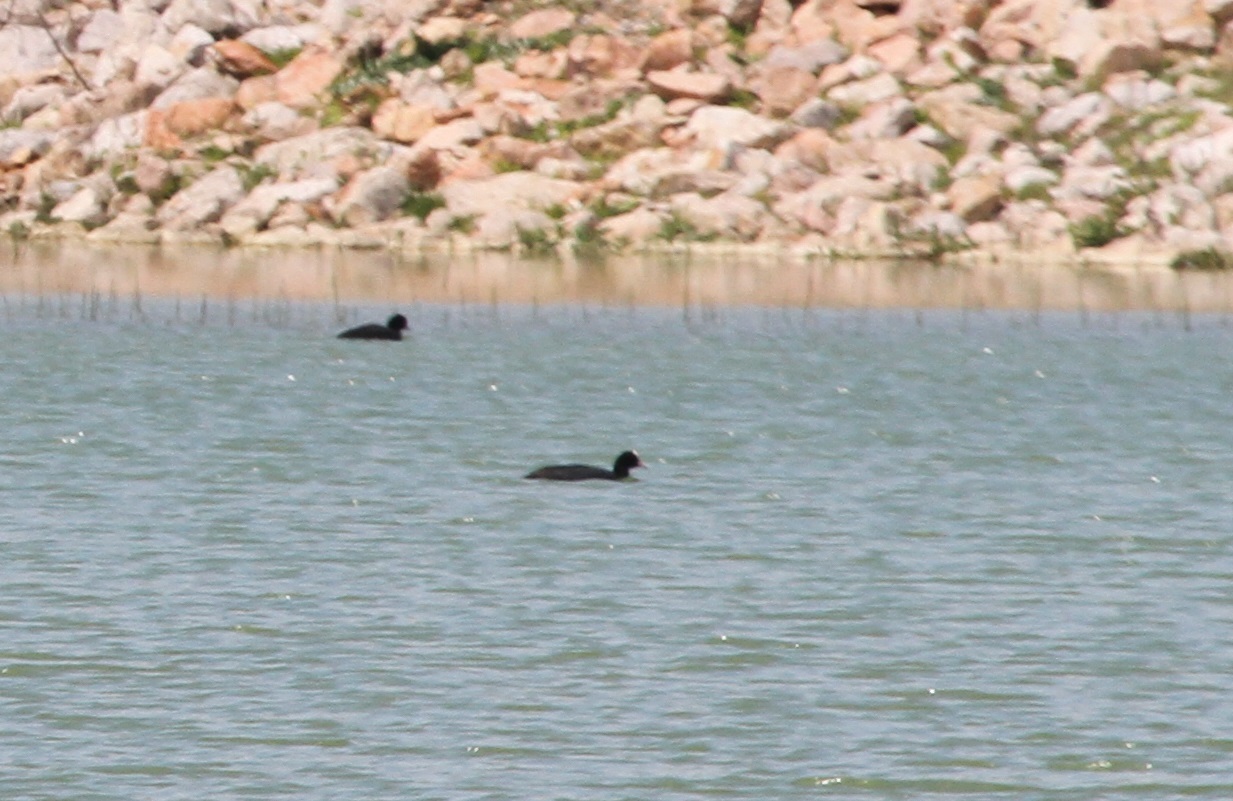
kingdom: Animalia
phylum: Chordata
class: Aves
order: Gruiformes
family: Rallidae
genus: Fulica
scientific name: Fulica atra
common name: Eurasian coot
